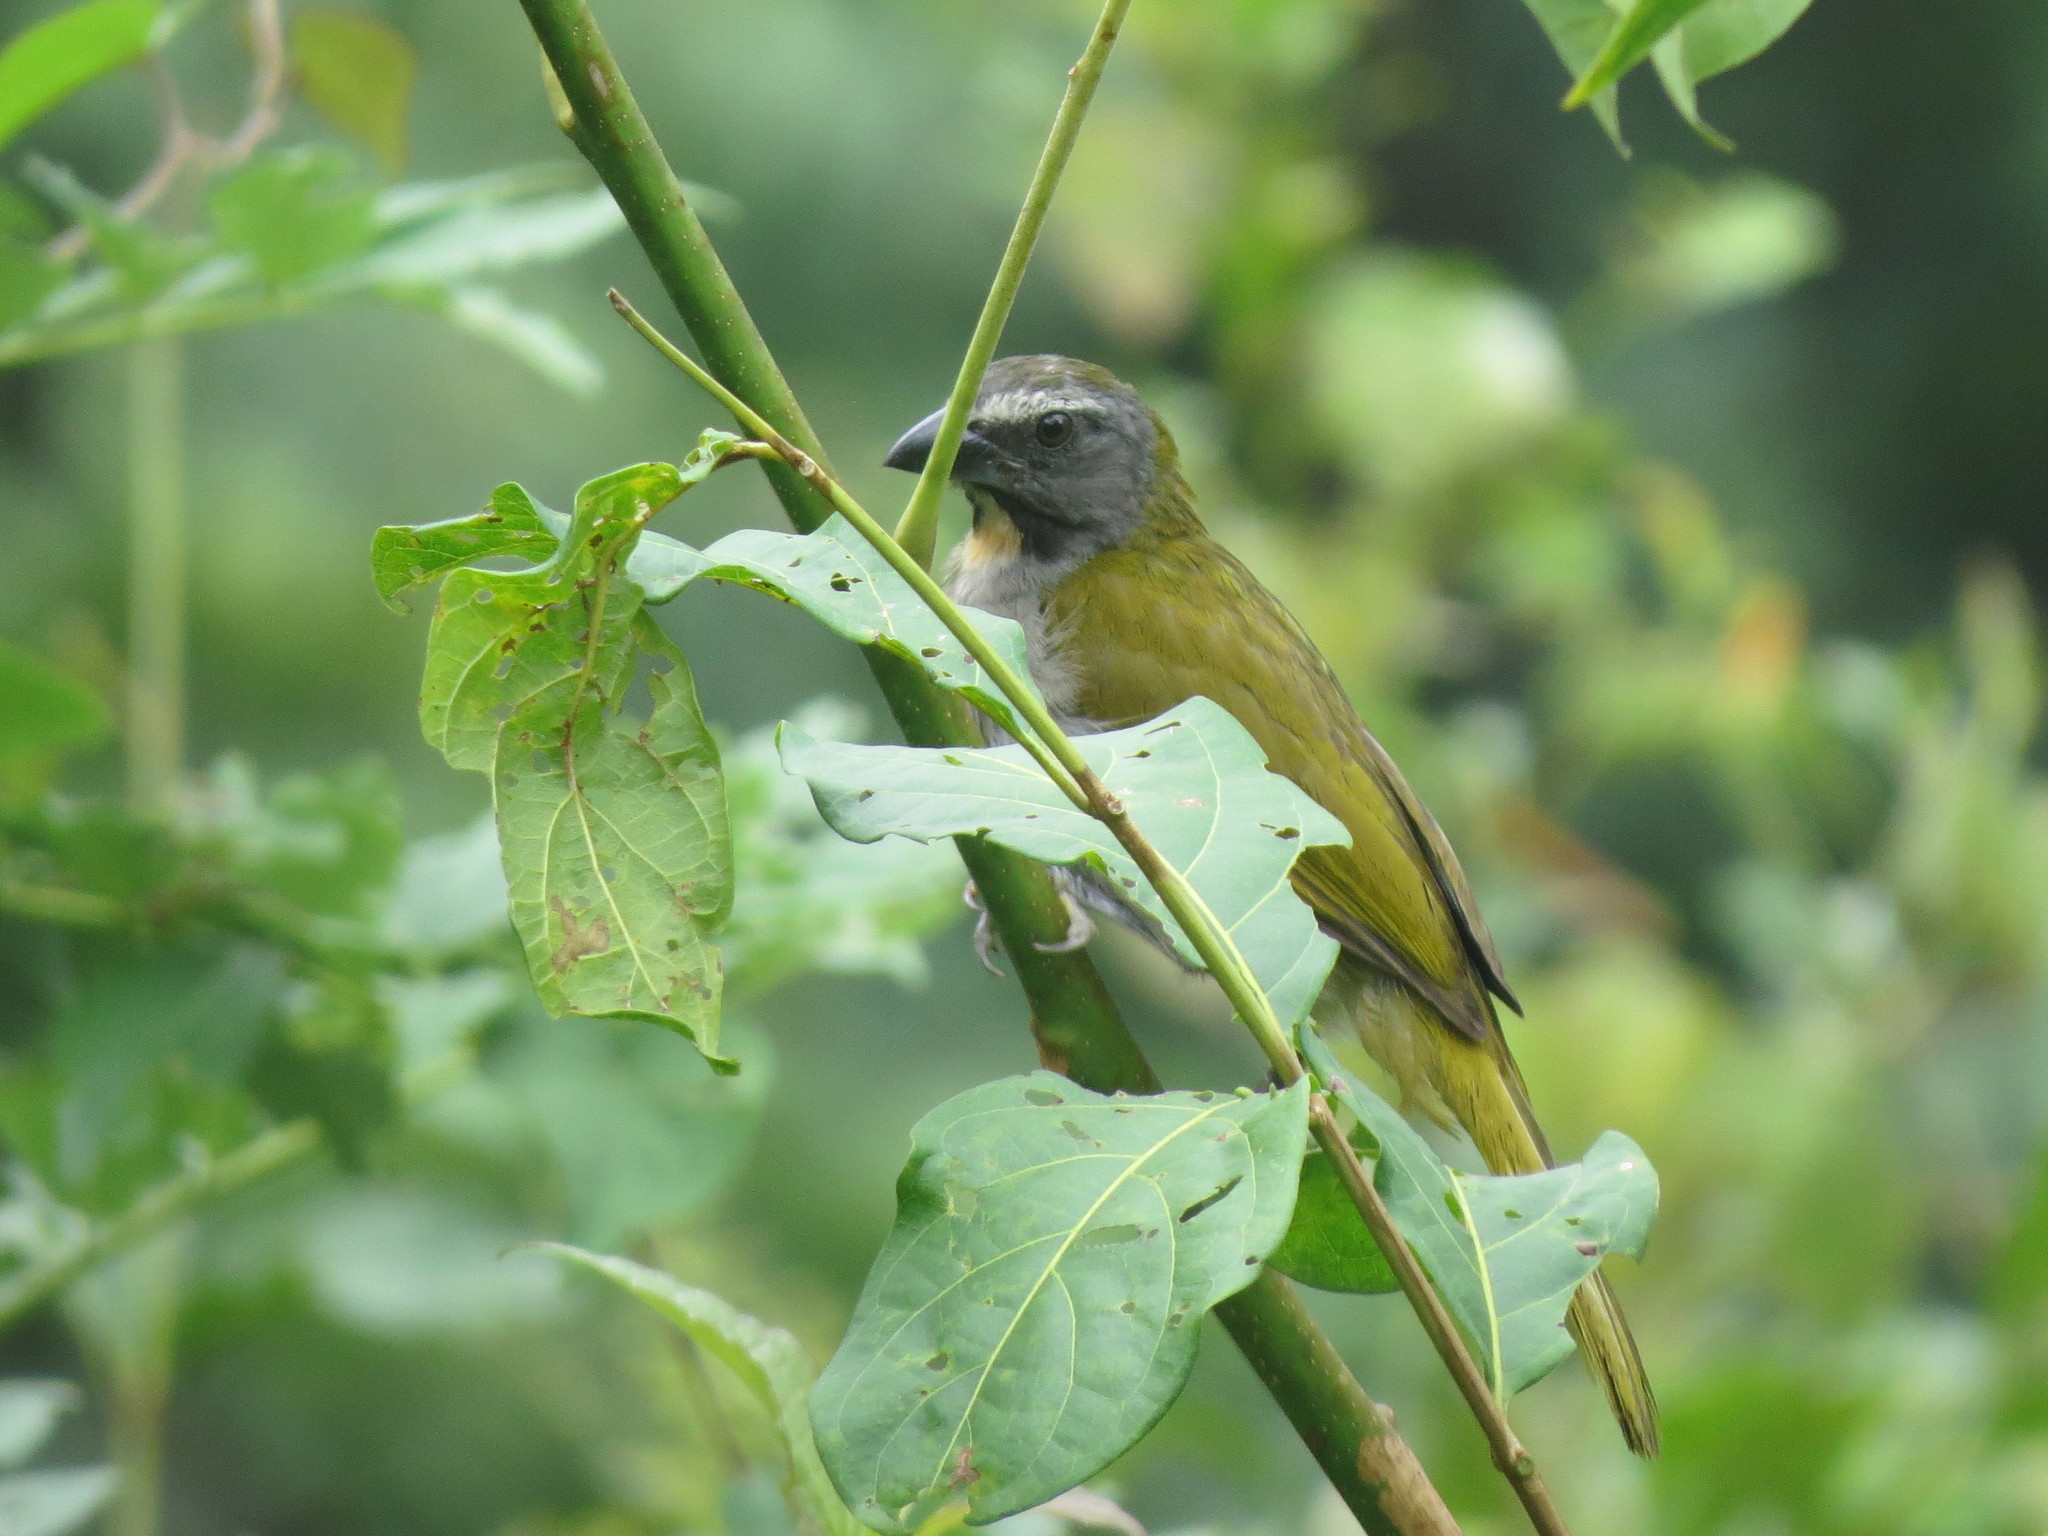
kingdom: Animalia
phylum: Chordata
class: Aves
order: Passeriformes
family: Thraupidae
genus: Saltator
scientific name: Saltator maximus
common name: Buff-throated saltator
